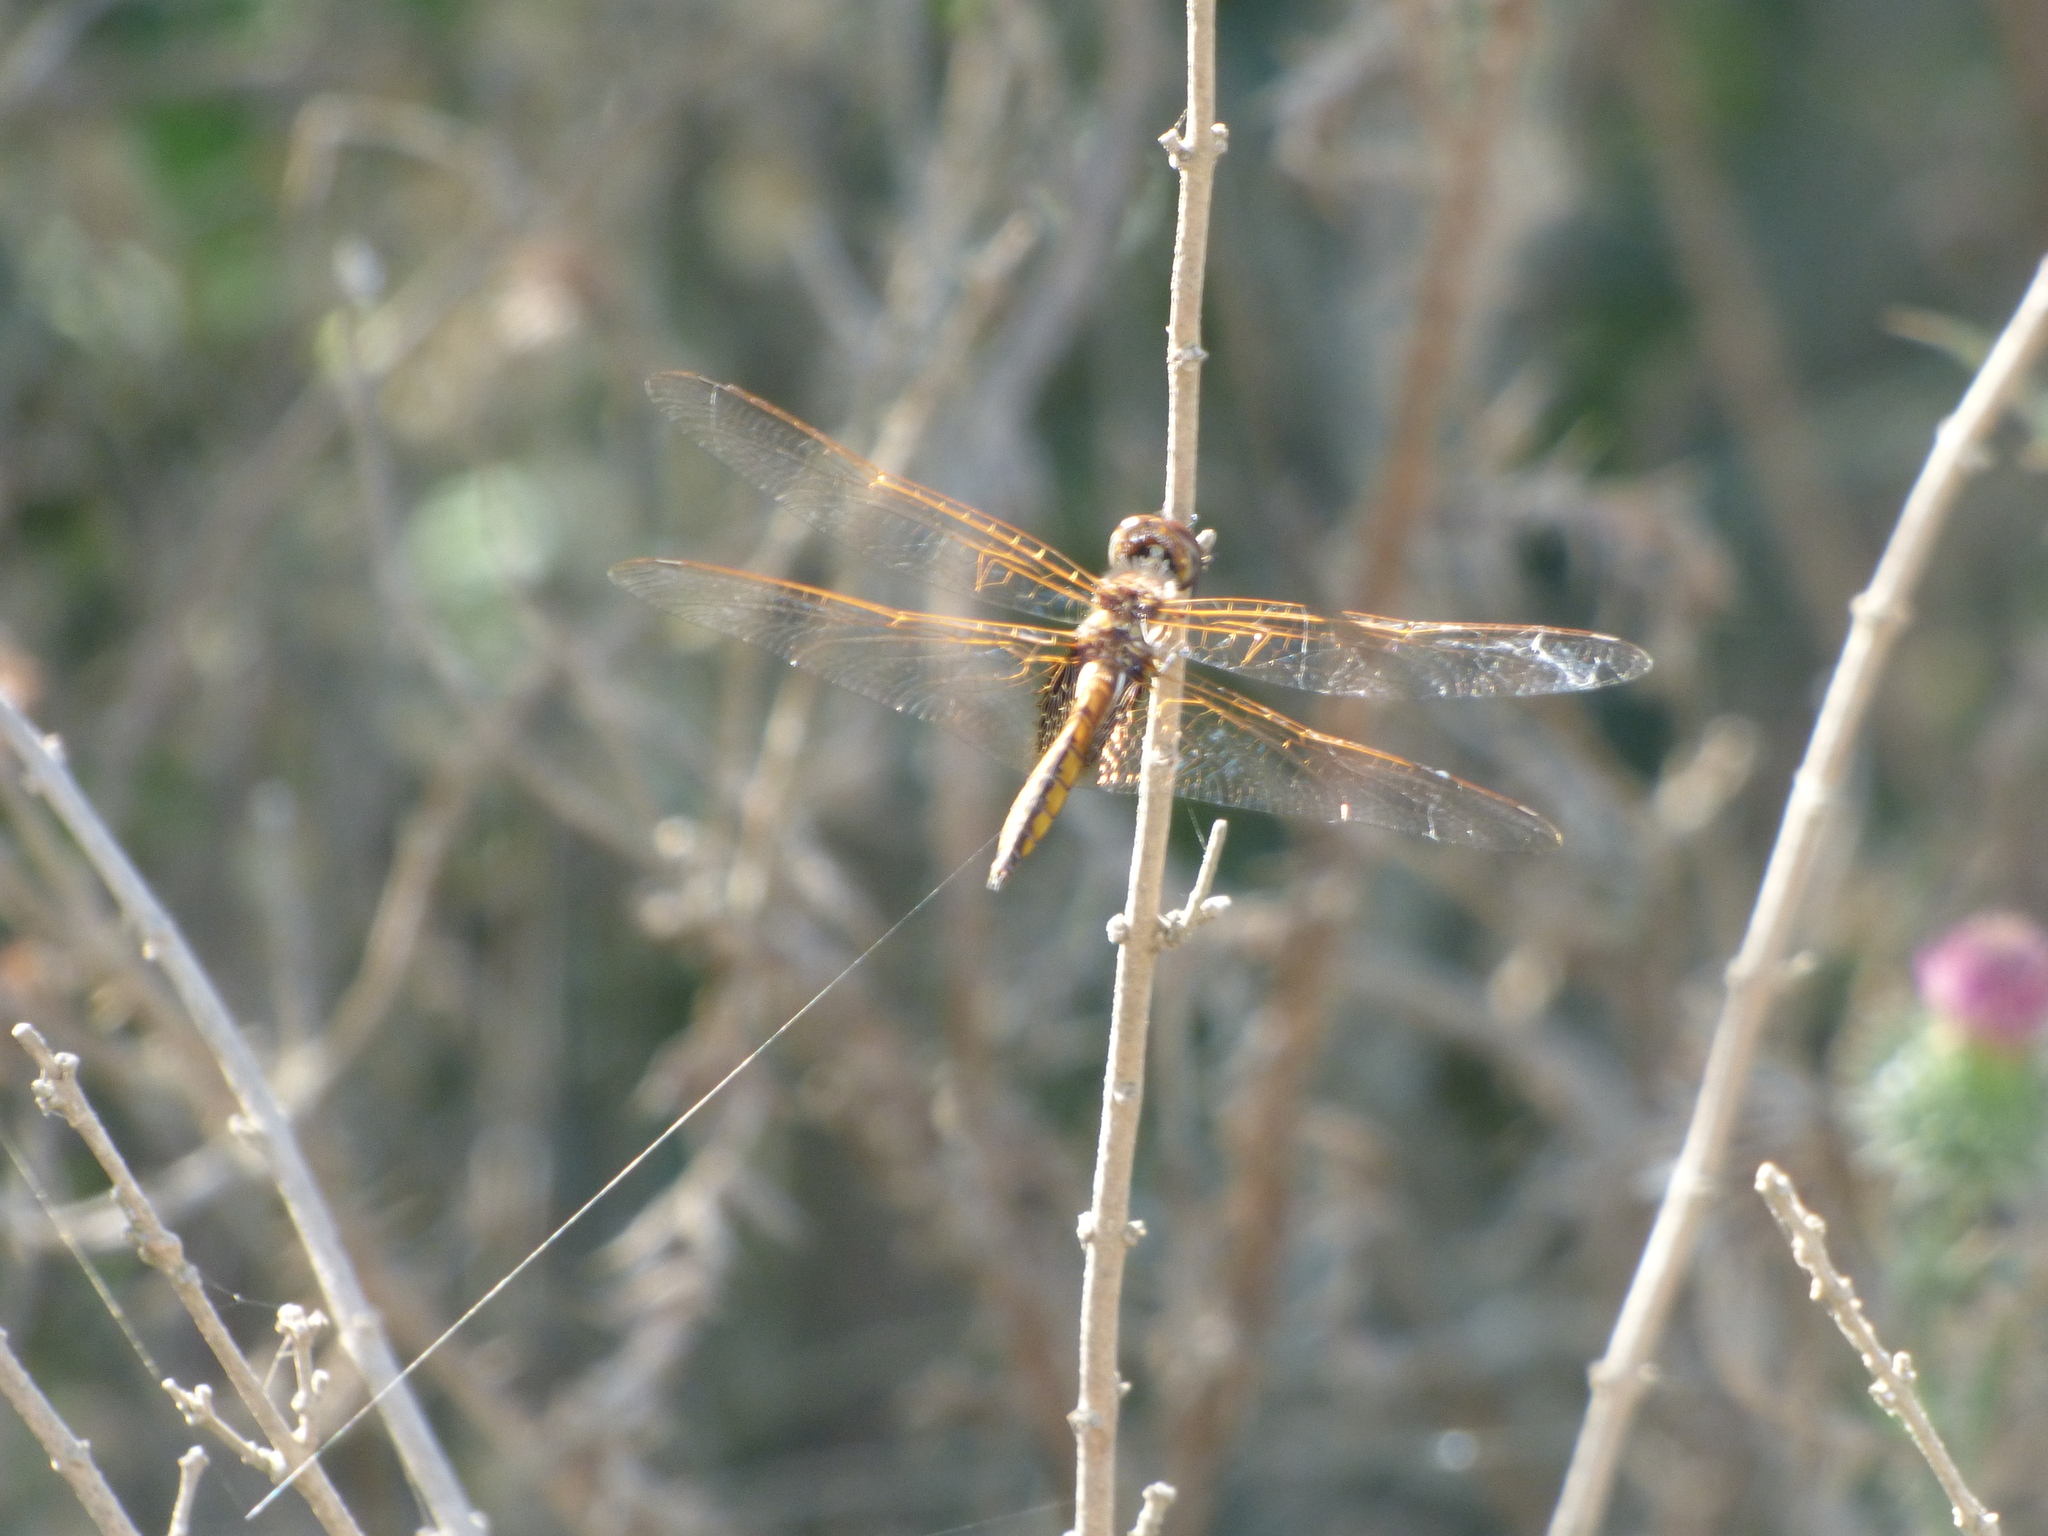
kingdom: Animalia
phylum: Arthropoda
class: Insecta
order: Odonata
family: Libellulidae
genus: Miathyria
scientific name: Miathyria marcella
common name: Hyacinth glider
